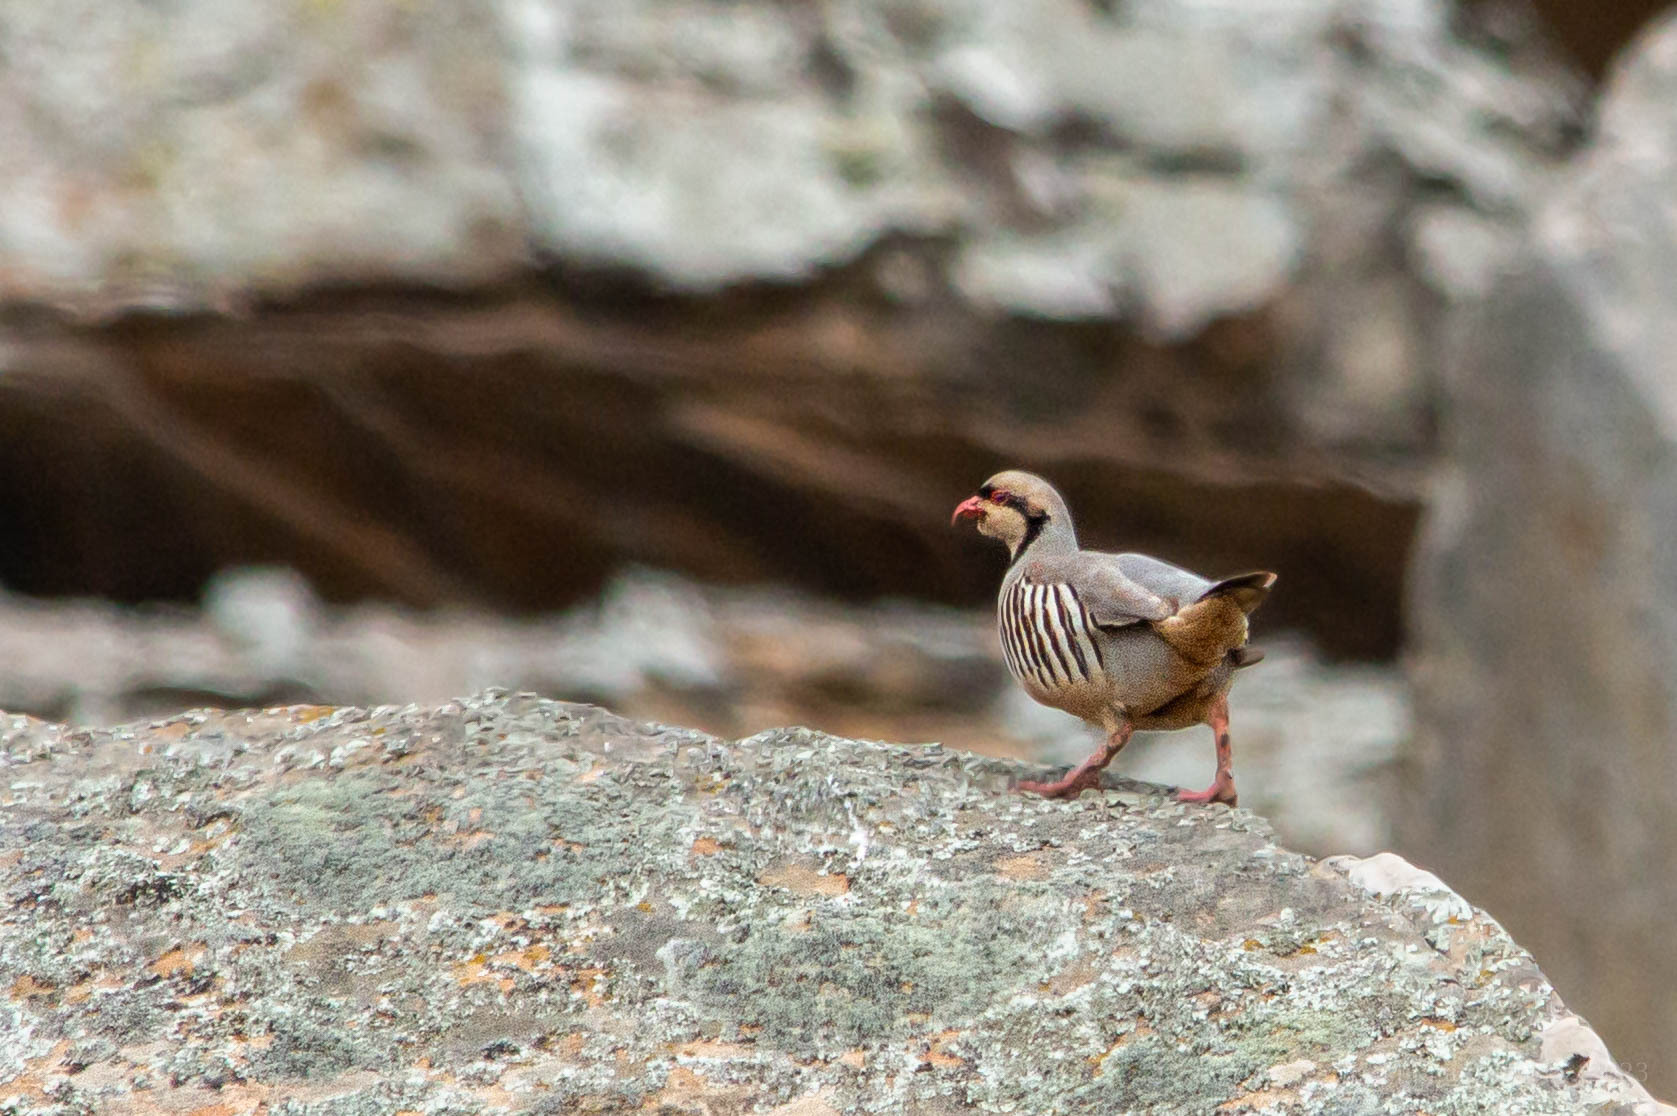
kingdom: Animalia
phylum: Chordata
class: Aves
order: Galliformes
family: Phasianidae
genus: Alectoris
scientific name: Alectoris chukar
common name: Chukar
